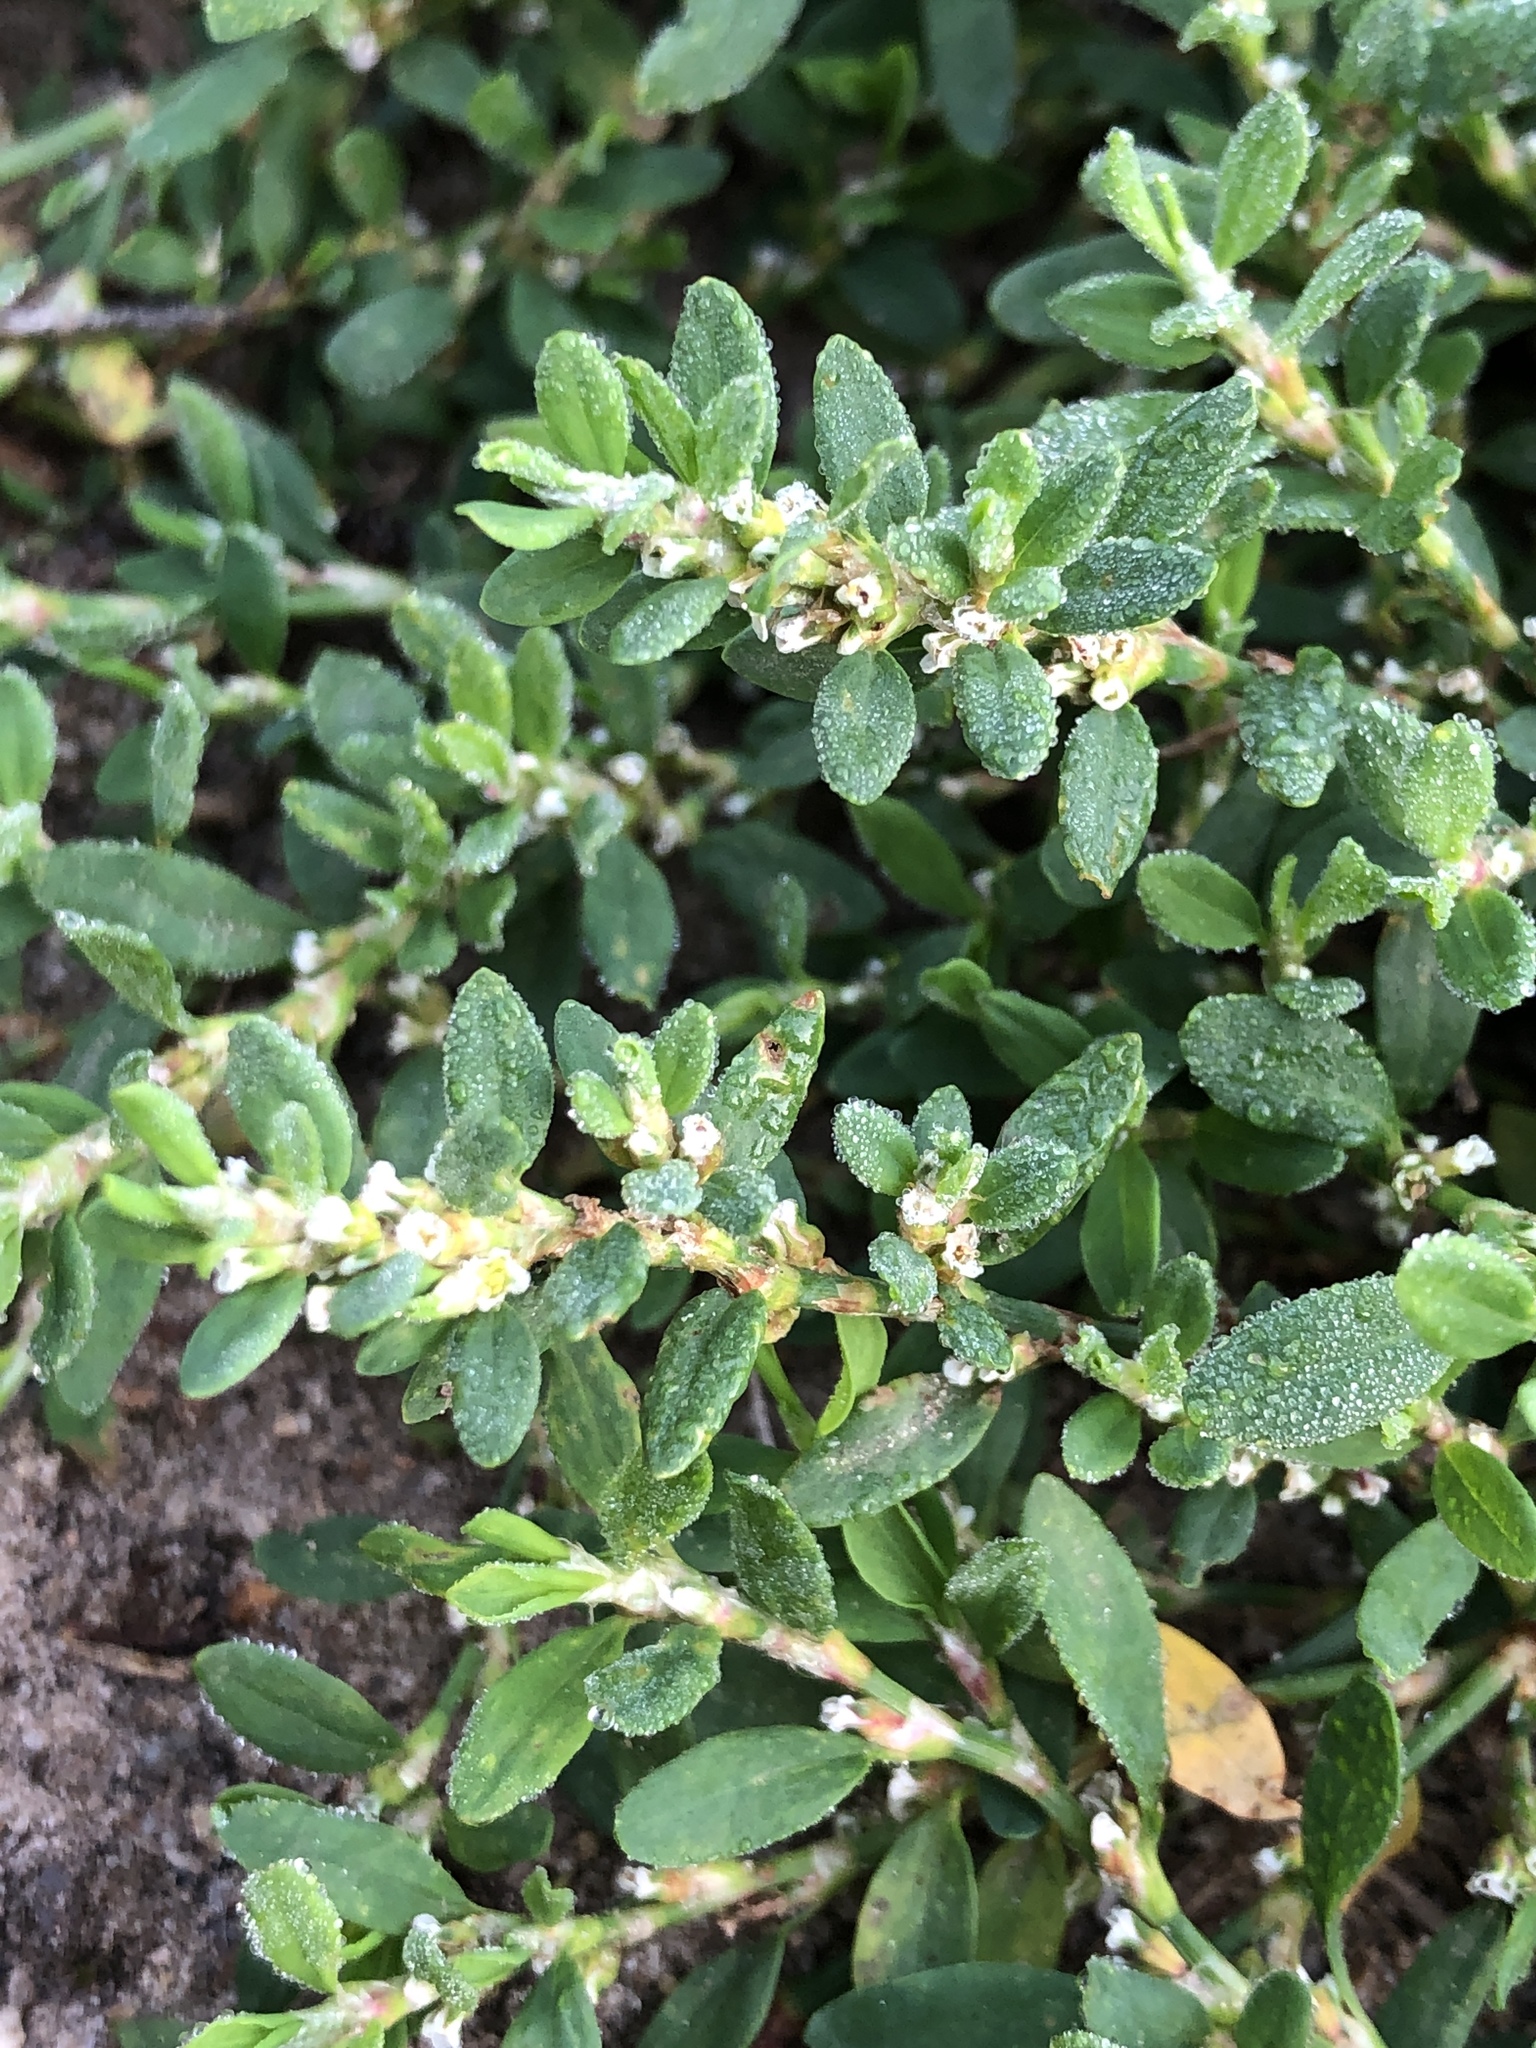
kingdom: Plantae
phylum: Tracheophyta
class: Magnoliopsida
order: Caryophyllales
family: Polygonaceae
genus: Polygonum
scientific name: Polygonum aviculare
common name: Prostrate knotweed
